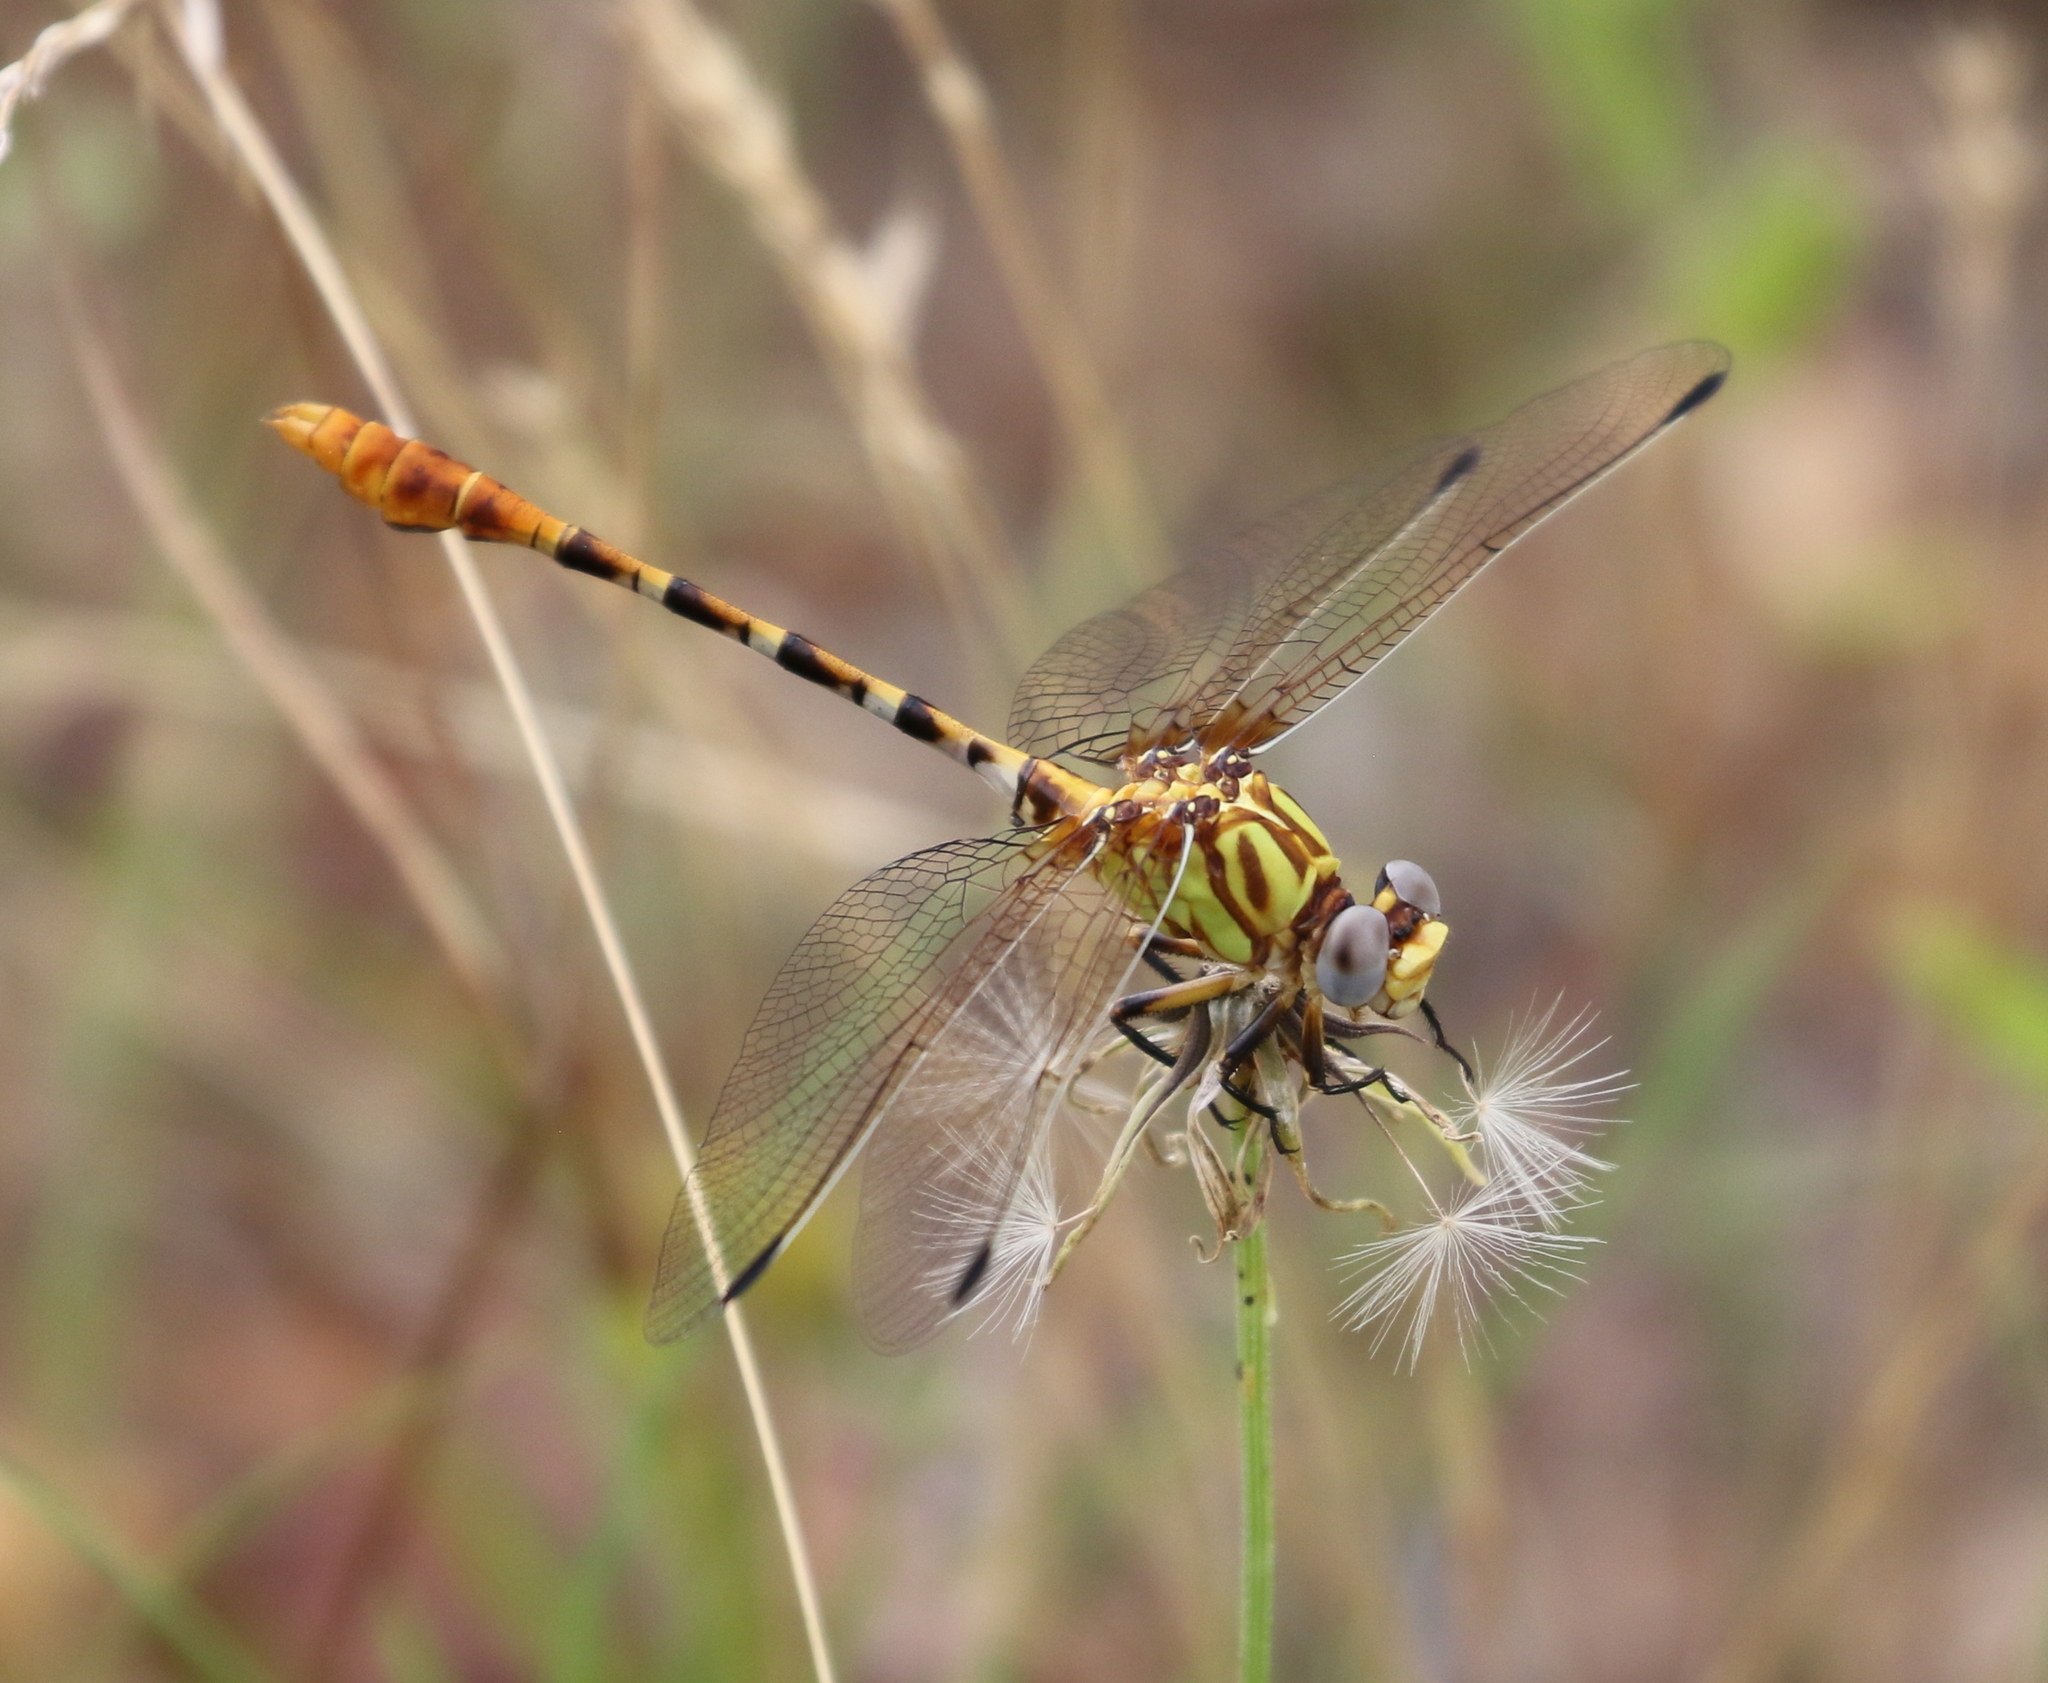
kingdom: Animalia
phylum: Arthropoda
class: Insecta
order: Odonata
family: Gomphidae
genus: Erpetogomphus
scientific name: Erpetogomphus designatus
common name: Eastern ringtail
